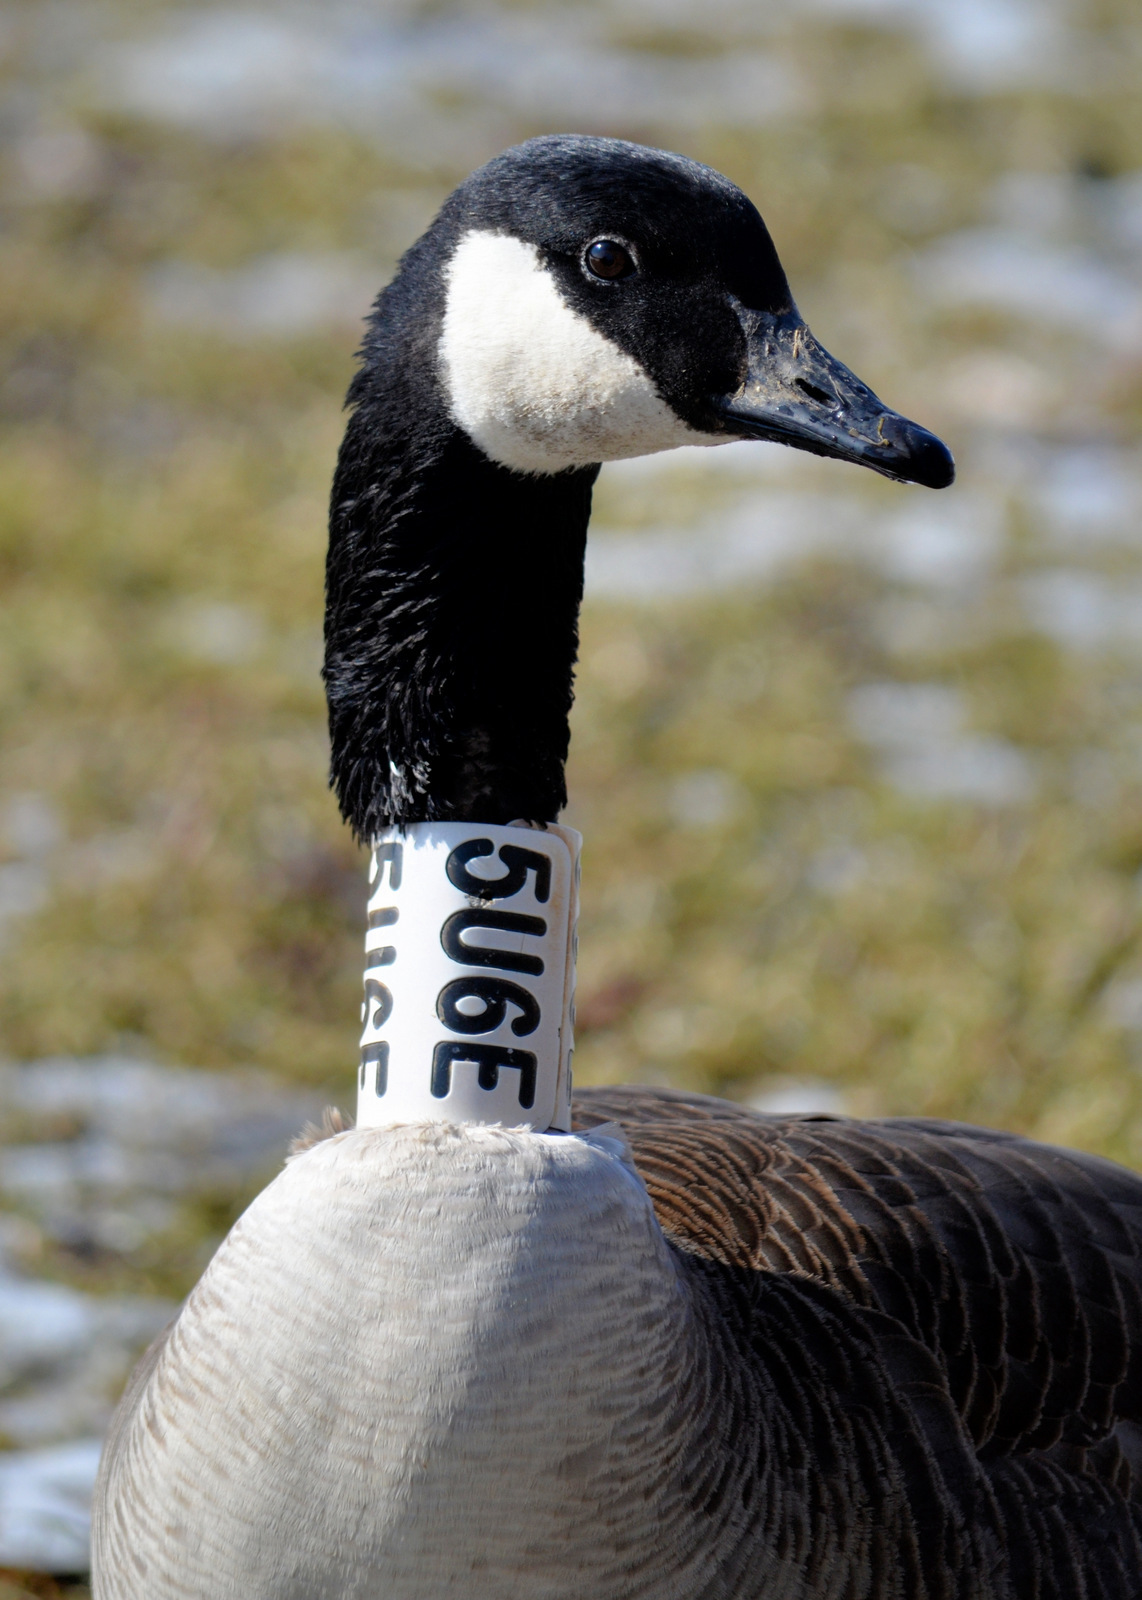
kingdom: Animalia
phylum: Chordata
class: Aves
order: Anseriformes
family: Anatidae
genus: Branta
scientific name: Branta canadensis
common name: Canada goose
